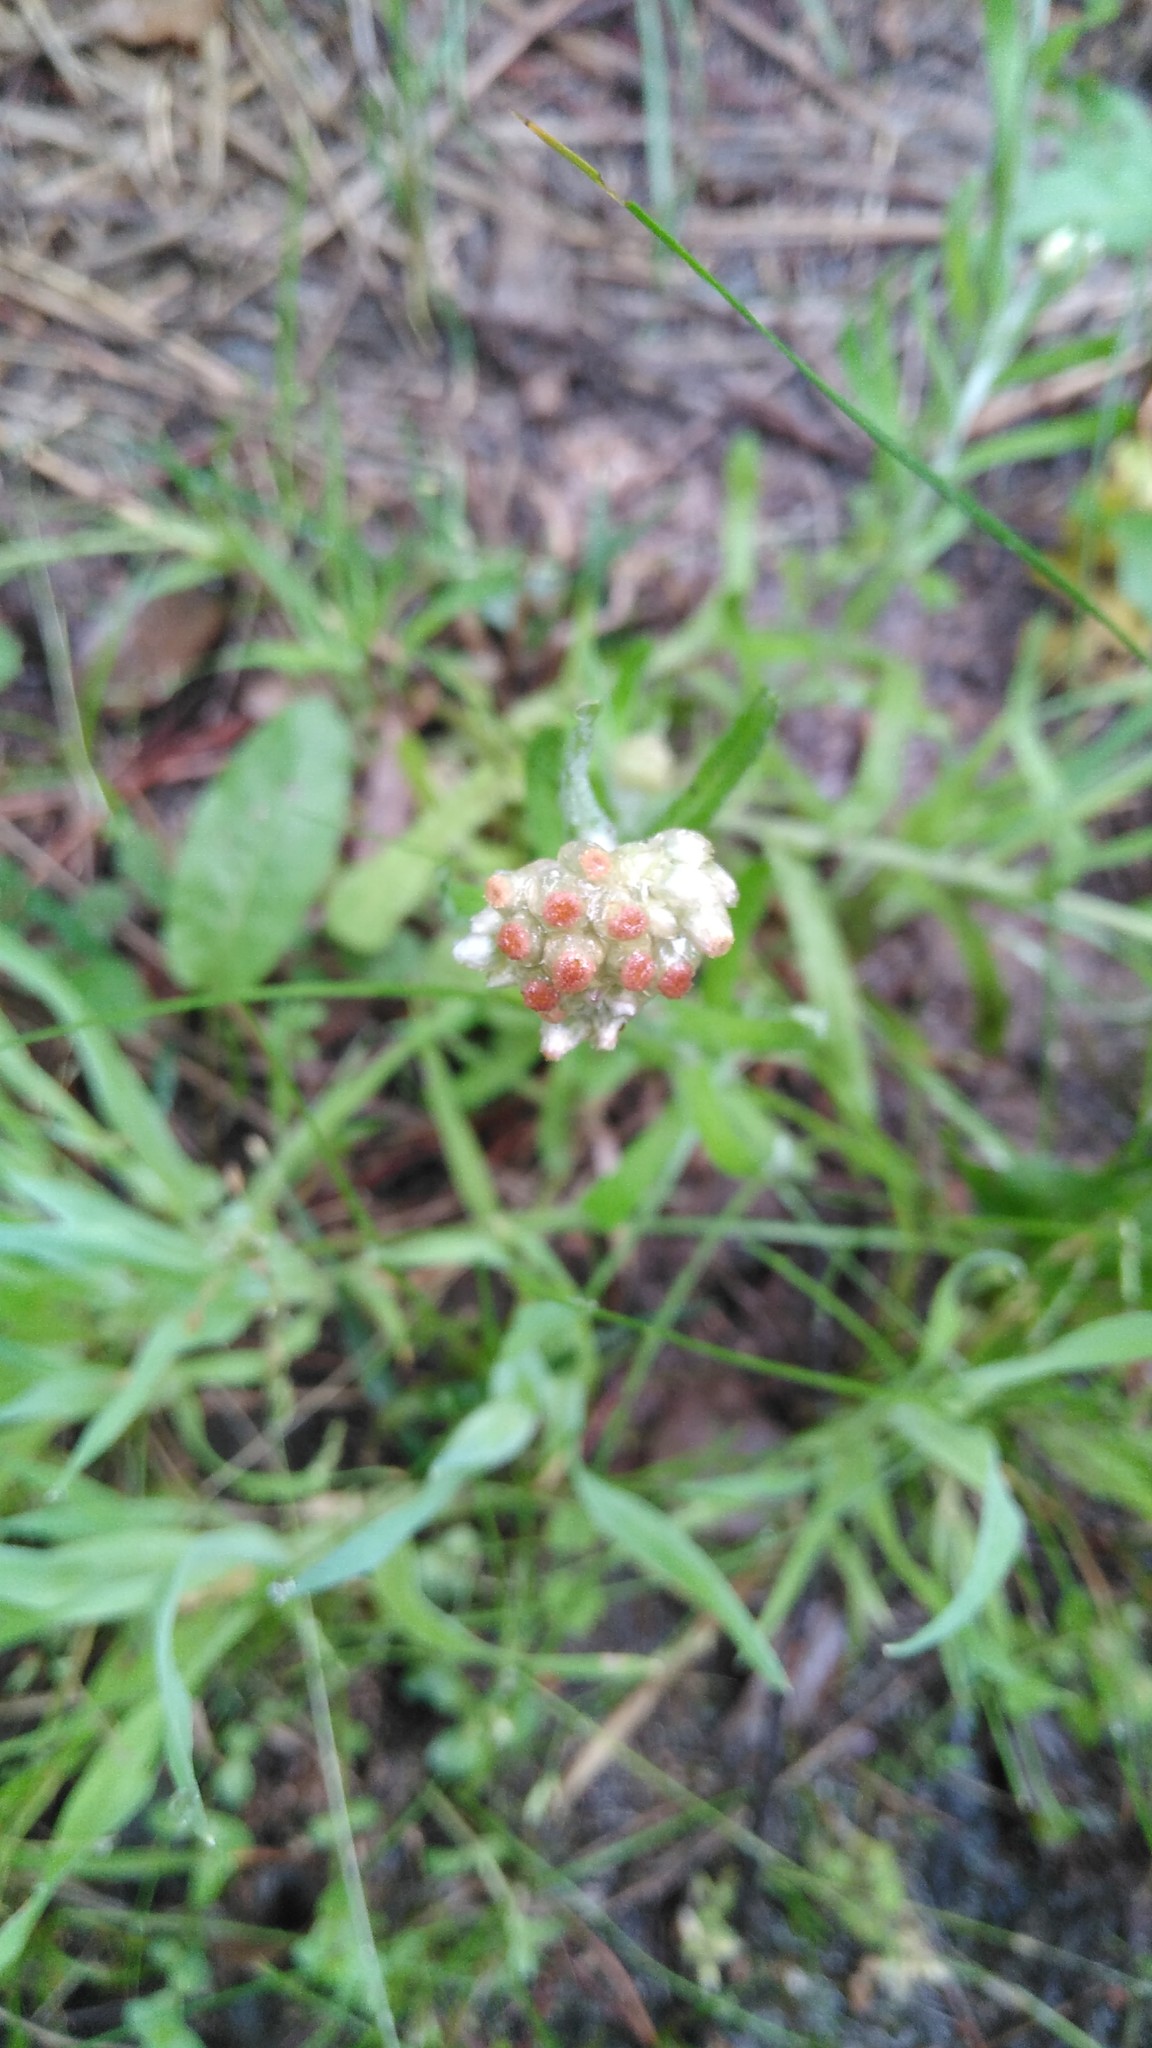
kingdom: Plantae
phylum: Tracheophyta
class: Magnoliopsida
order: Asterales
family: Asteraceae
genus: Helichrysum
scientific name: Helichrysum luteoalbum
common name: Daisy
